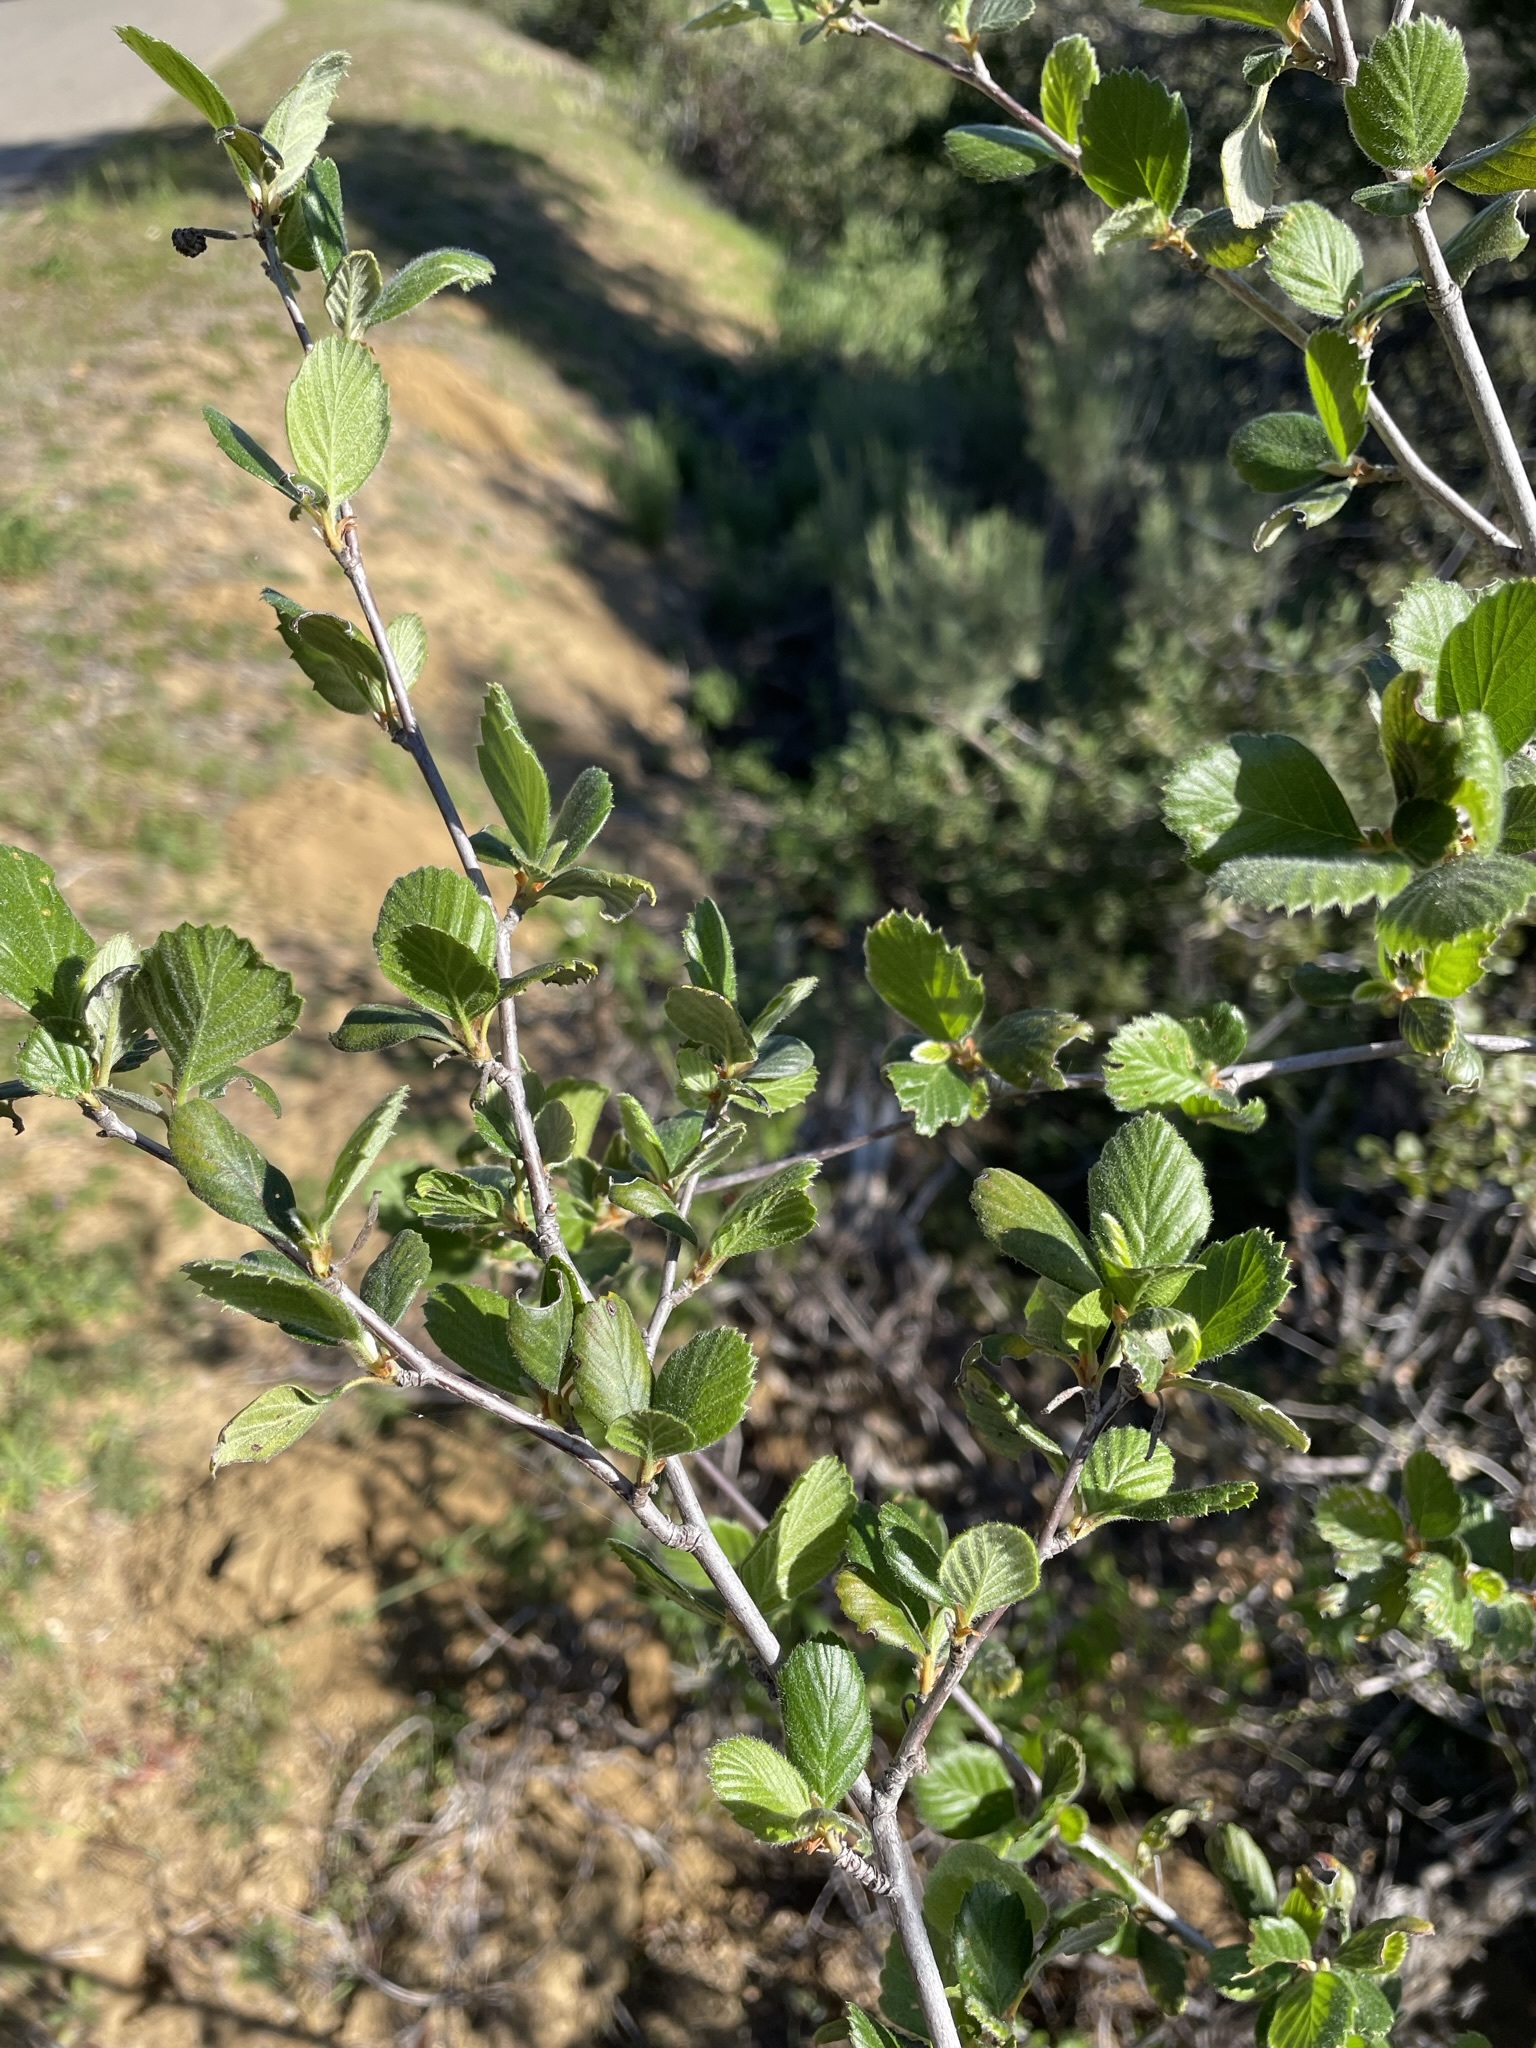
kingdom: Plantae
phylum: Tracheophyta
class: Magnoliopsida
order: Rosales
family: Rosaceae
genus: Cercocarpus
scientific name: Cercocarpus betuloides
